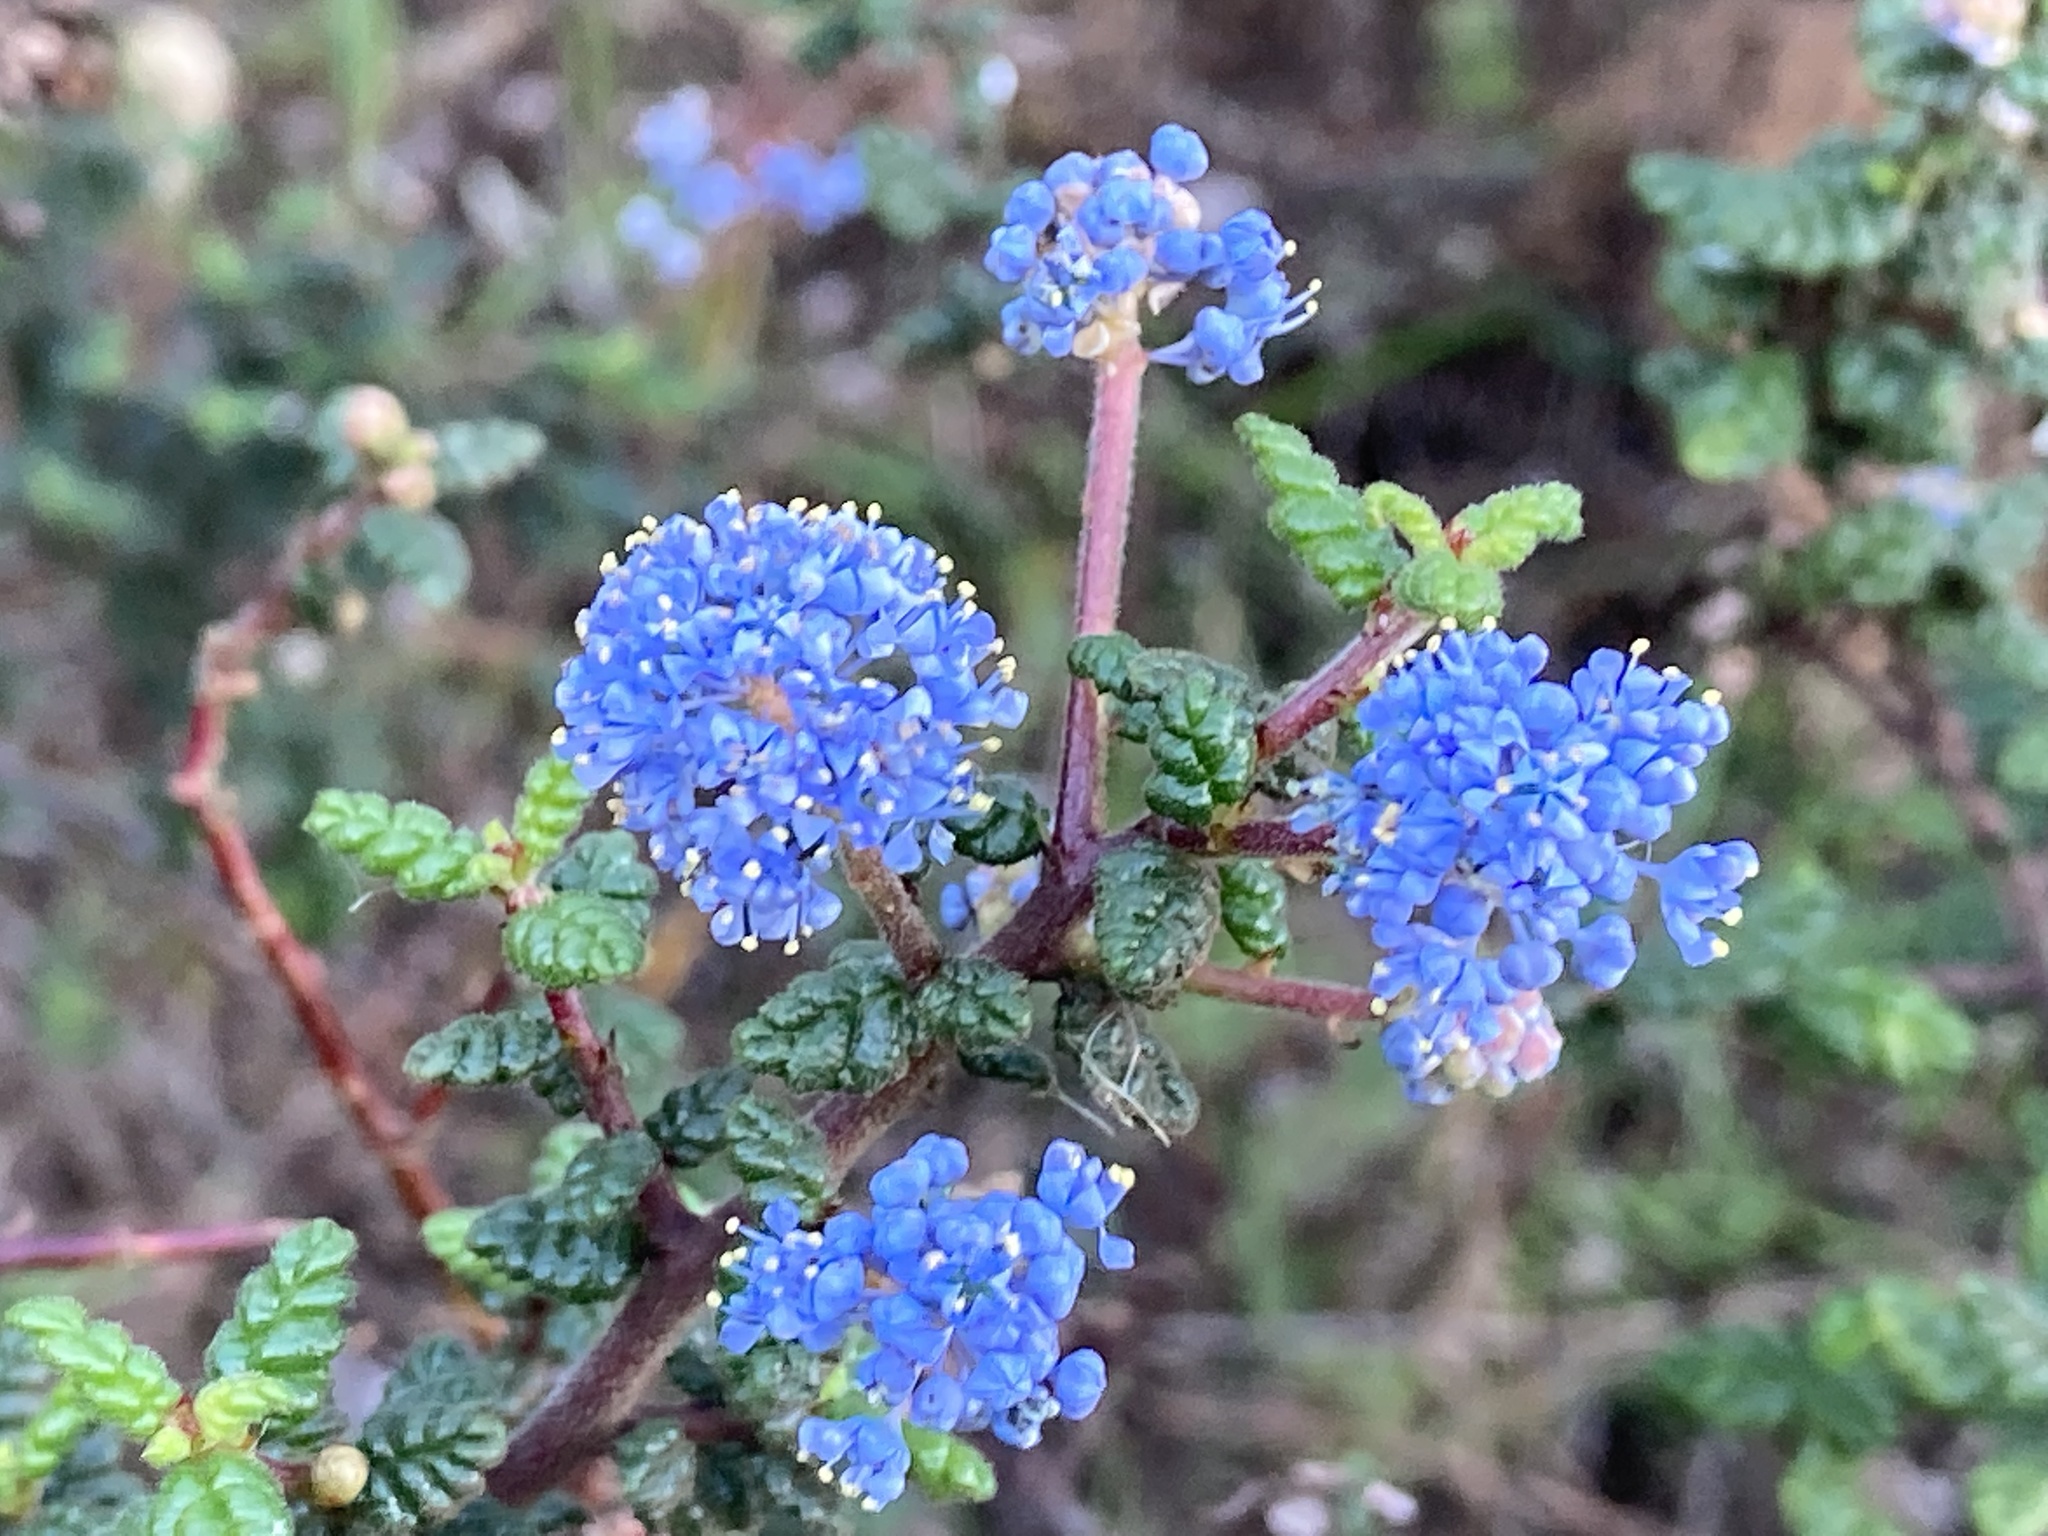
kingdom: Plantae
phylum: Tracheophyta
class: Magnoliopsida
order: Rosales
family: Rhamnaceae
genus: Ceanothus
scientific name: Ceanothus impressus
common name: Santa barbara ceanothus
